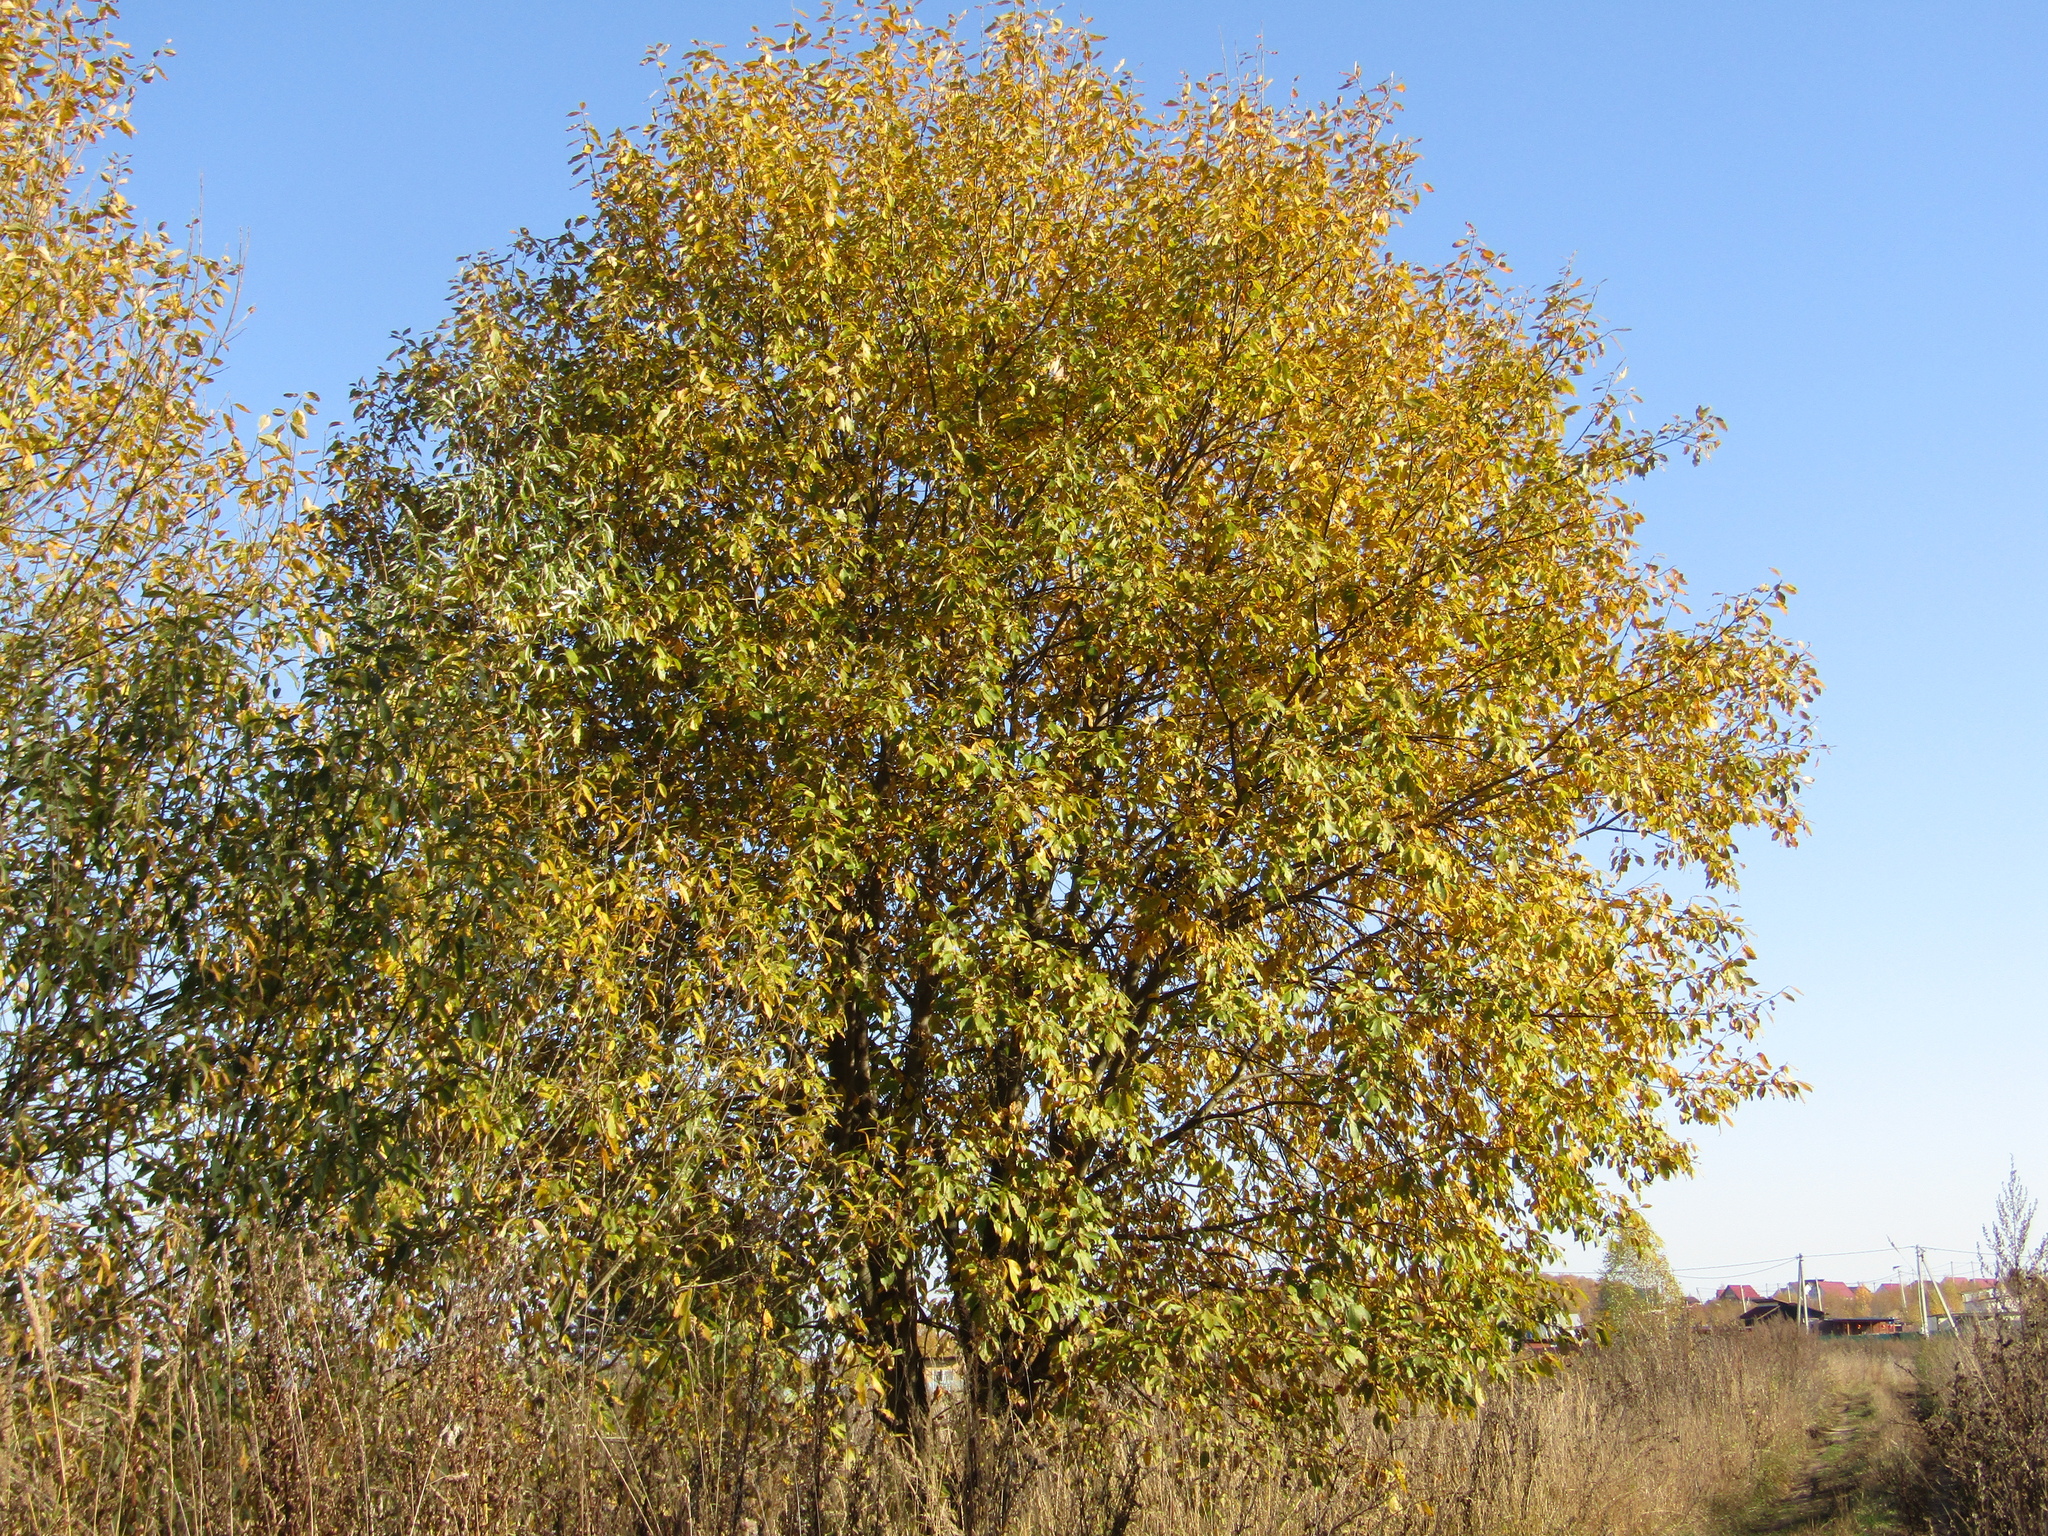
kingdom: Plantae
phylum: Tracheophyta
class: Magnoliopsida
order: Malpighiales
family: Salicaceae
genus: Salix
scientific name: Salix caprea
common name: Goat willow
